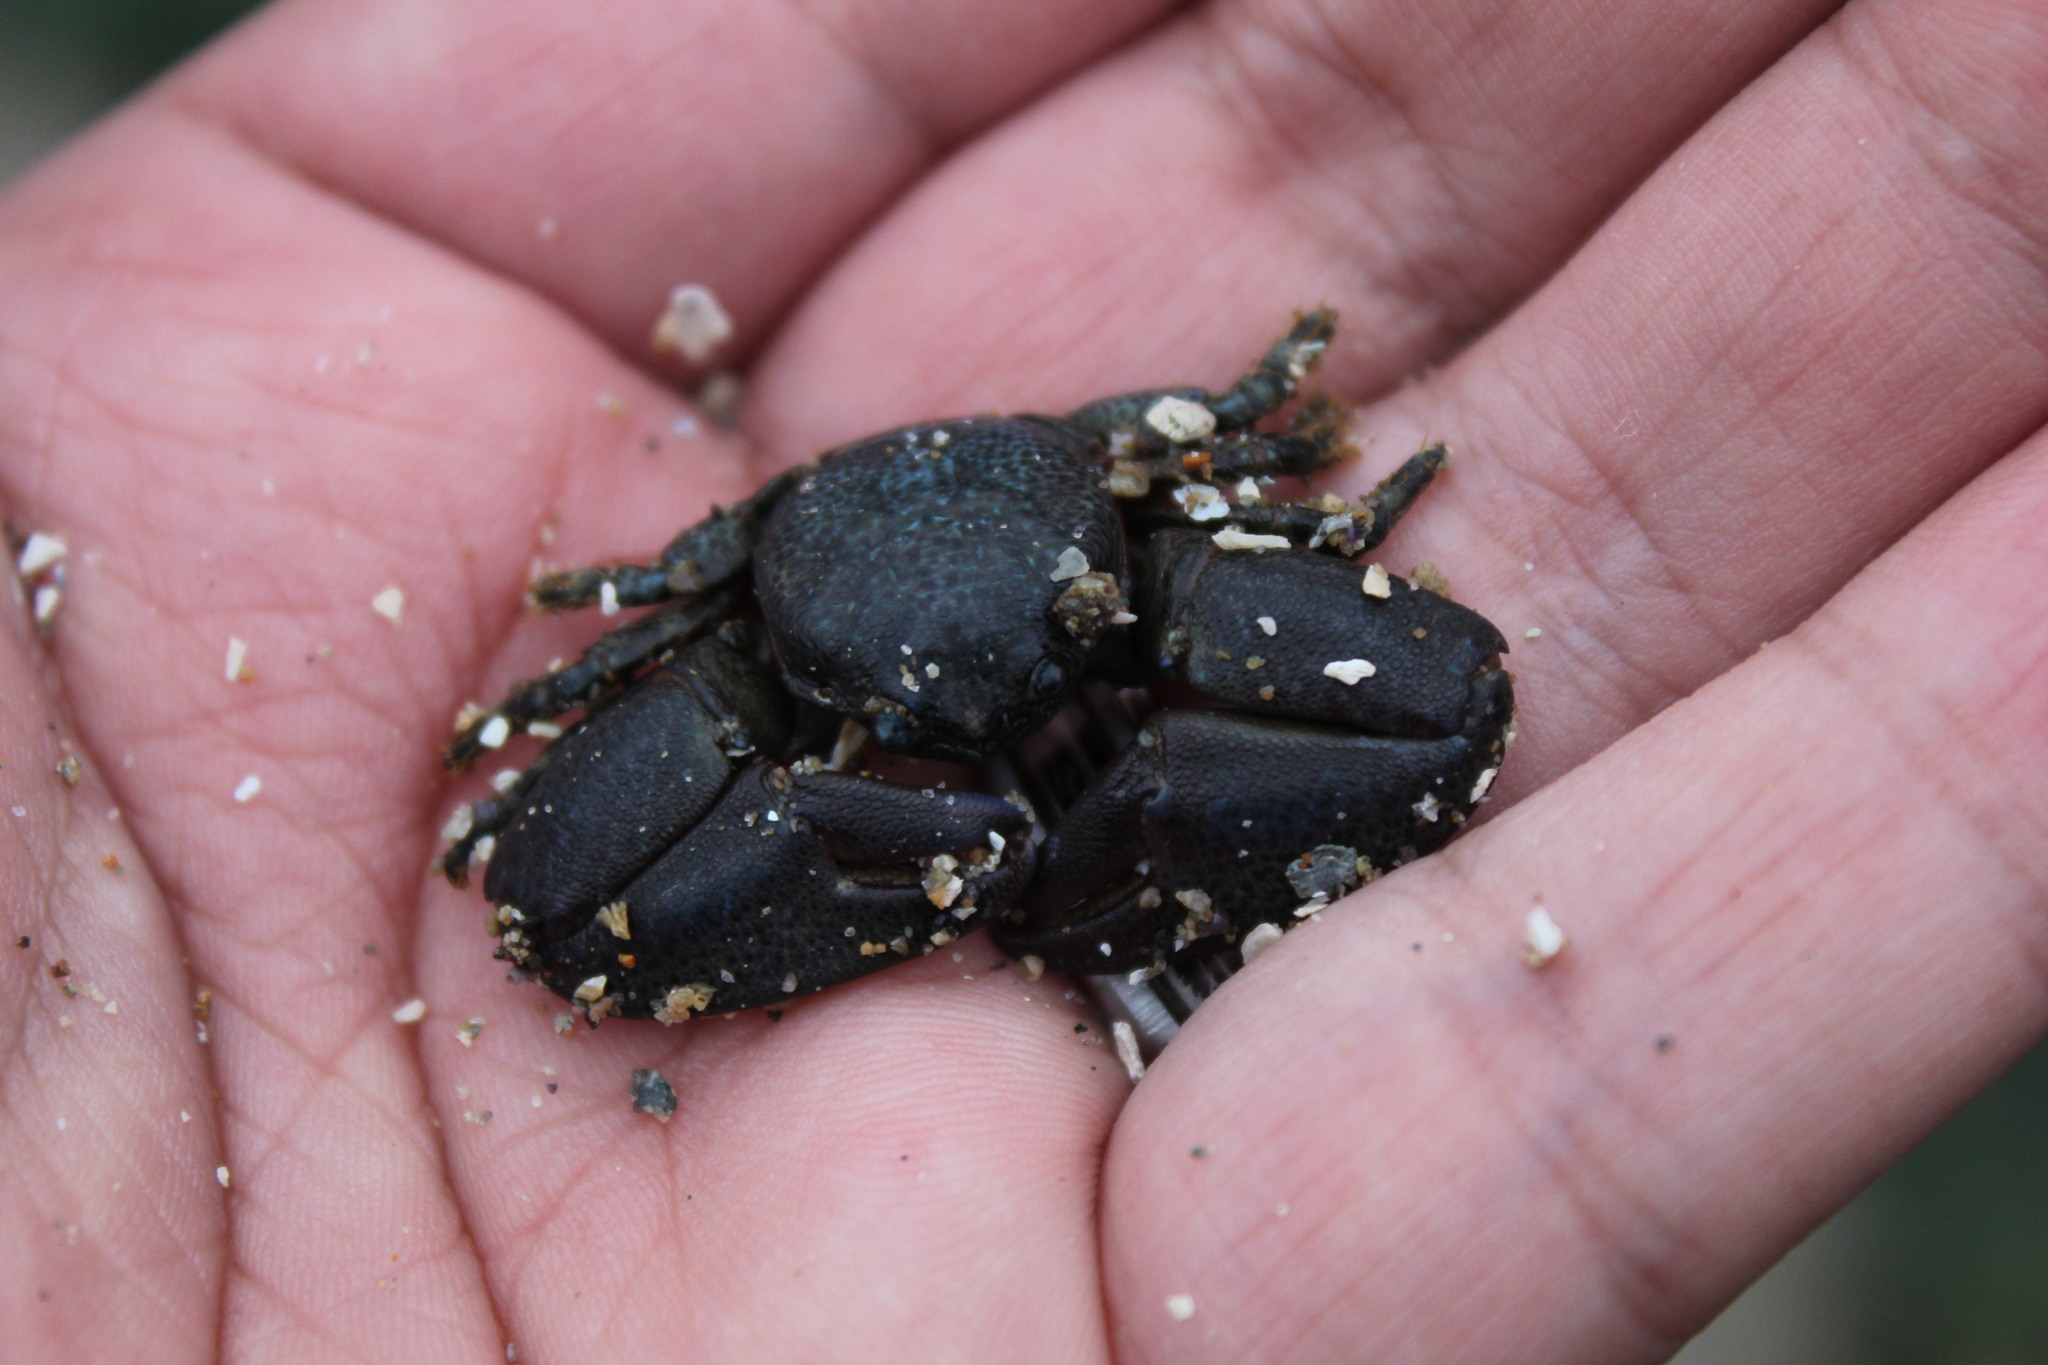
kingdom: Animalia
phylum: Arthropoda
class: Malacostraca
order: Decapoda
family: Porcellanidae
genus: Petrolisthes
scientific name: Petrolisthes granulosus
